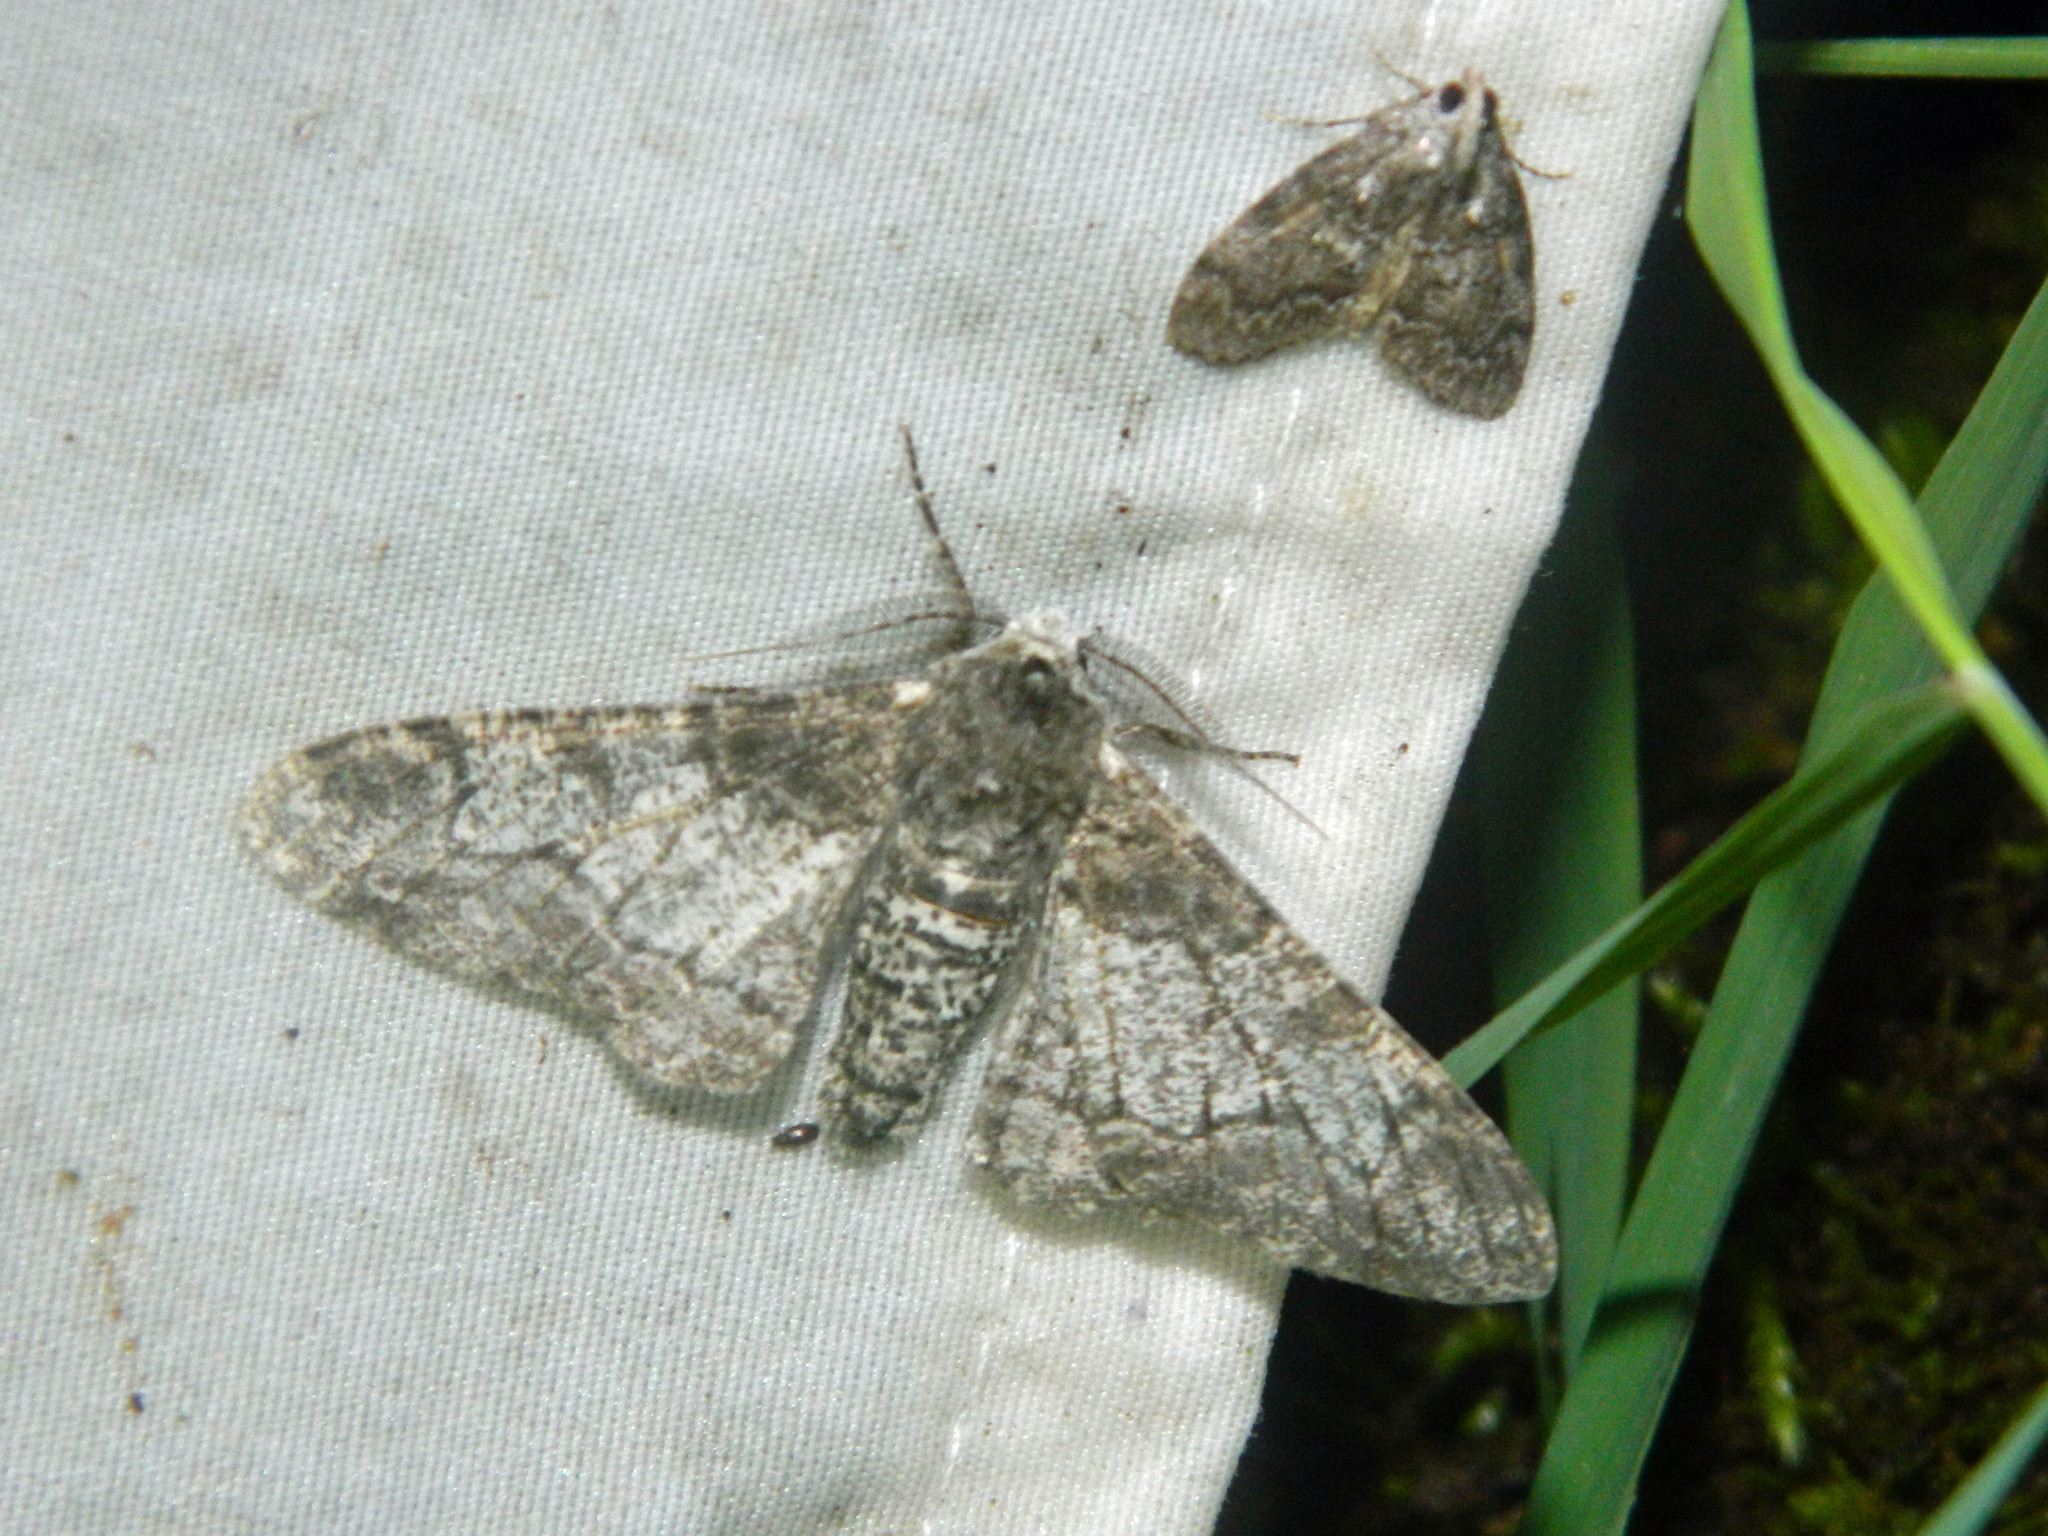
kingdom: Animalia
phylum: Arthropoda
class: Insecta
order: Lepidoptera
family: Geometridae
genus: Biston
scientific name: Biston betularia
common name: Peppered moth
